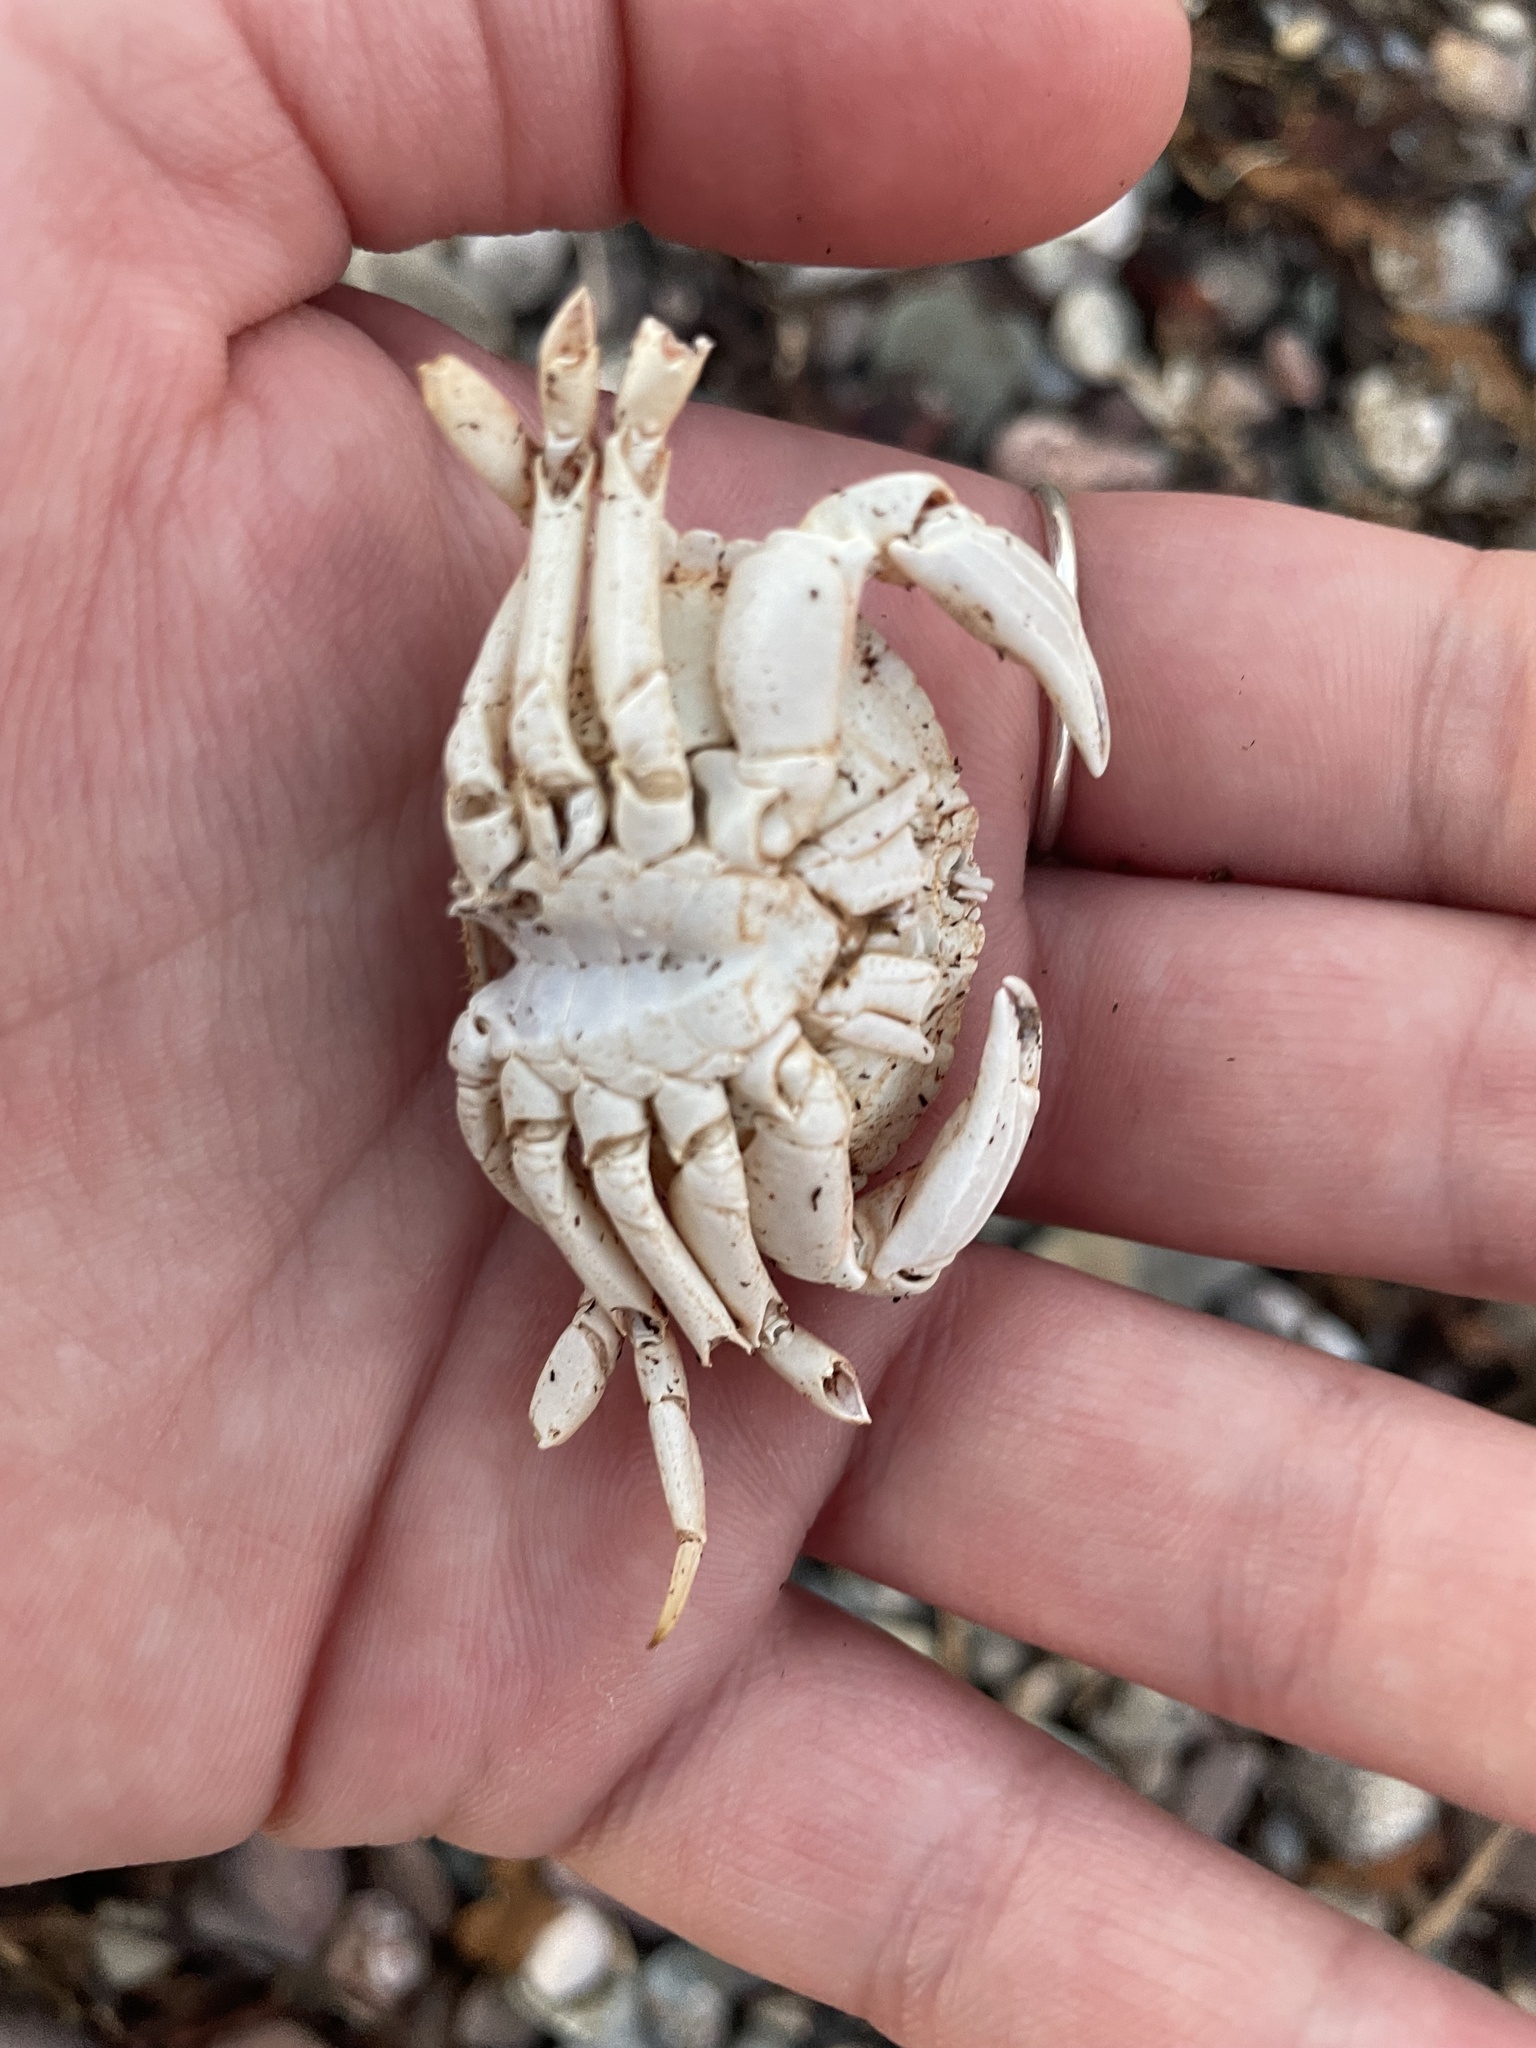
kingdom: Animalia
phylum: Arthropoda
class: Malacostraca
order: Decapoda
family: Cancridae
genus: Cancer
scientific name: Cancer irroratus
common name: Atlantic rock crab
